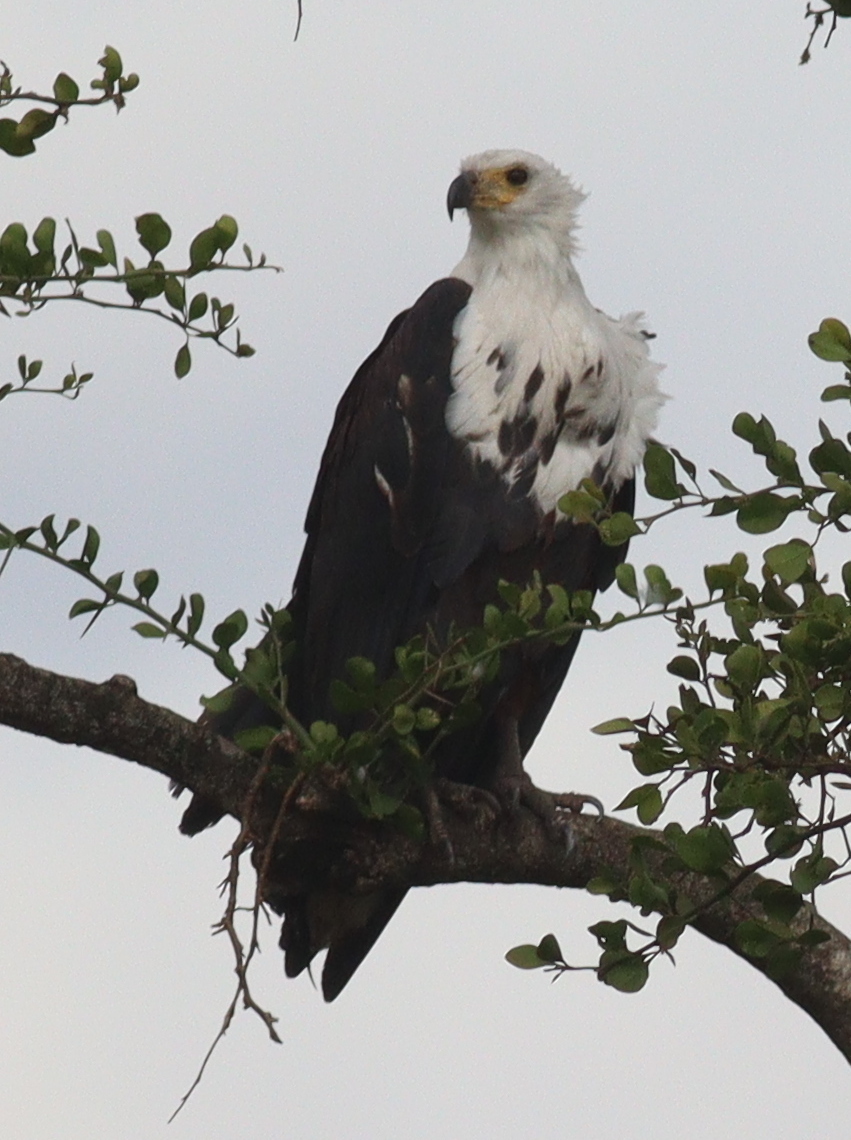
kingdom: Animalia
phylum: Chordata
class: Aves
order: Accipitriformes
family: Accipitridae
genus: Haliaeetus
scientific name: Haliaeetus vocifer
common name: African fish eagle
